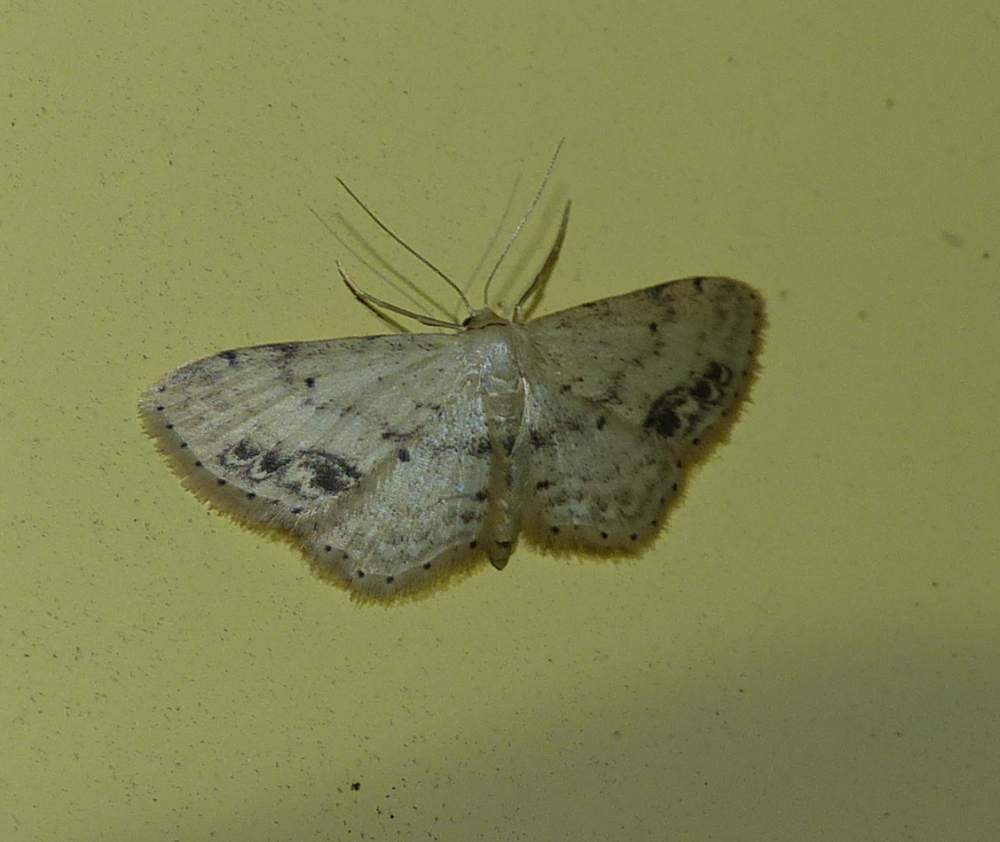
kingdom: Animalia
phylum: Arthropoda
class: Insecta
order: Lepidoptera
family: Geometridae
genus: Idaea
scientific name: Idaea dimidiata
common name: Single-dotted wave
